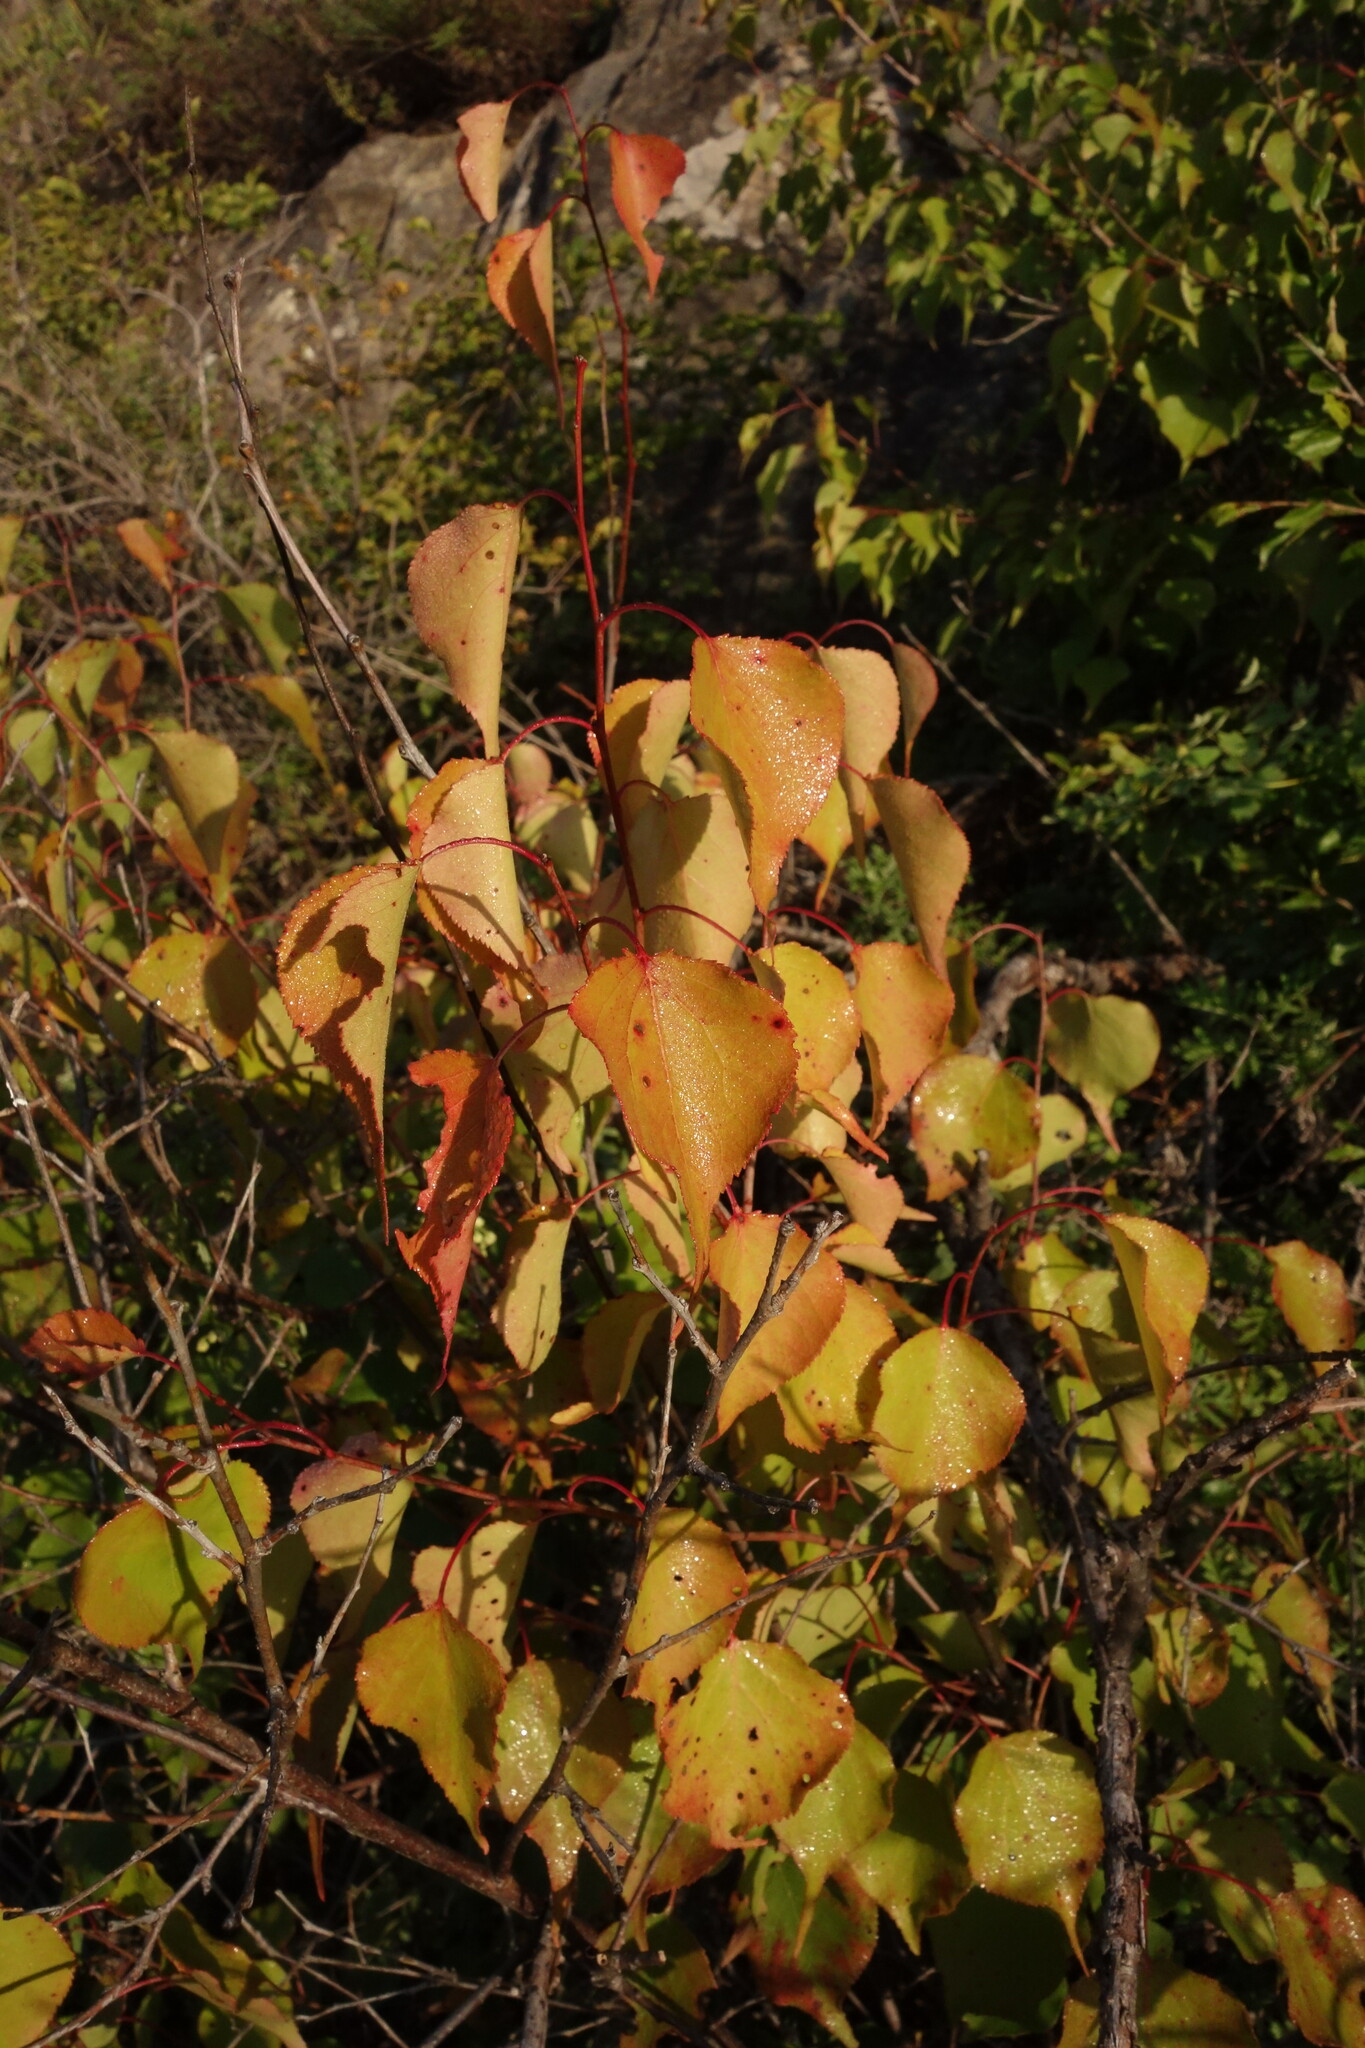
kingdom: Plantae
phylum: Tracheophyta
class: Magnoliopsida
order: Rosales
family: Rosaceae
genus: Prunus
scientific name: Prunus sibirica
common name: Siberian apricot
